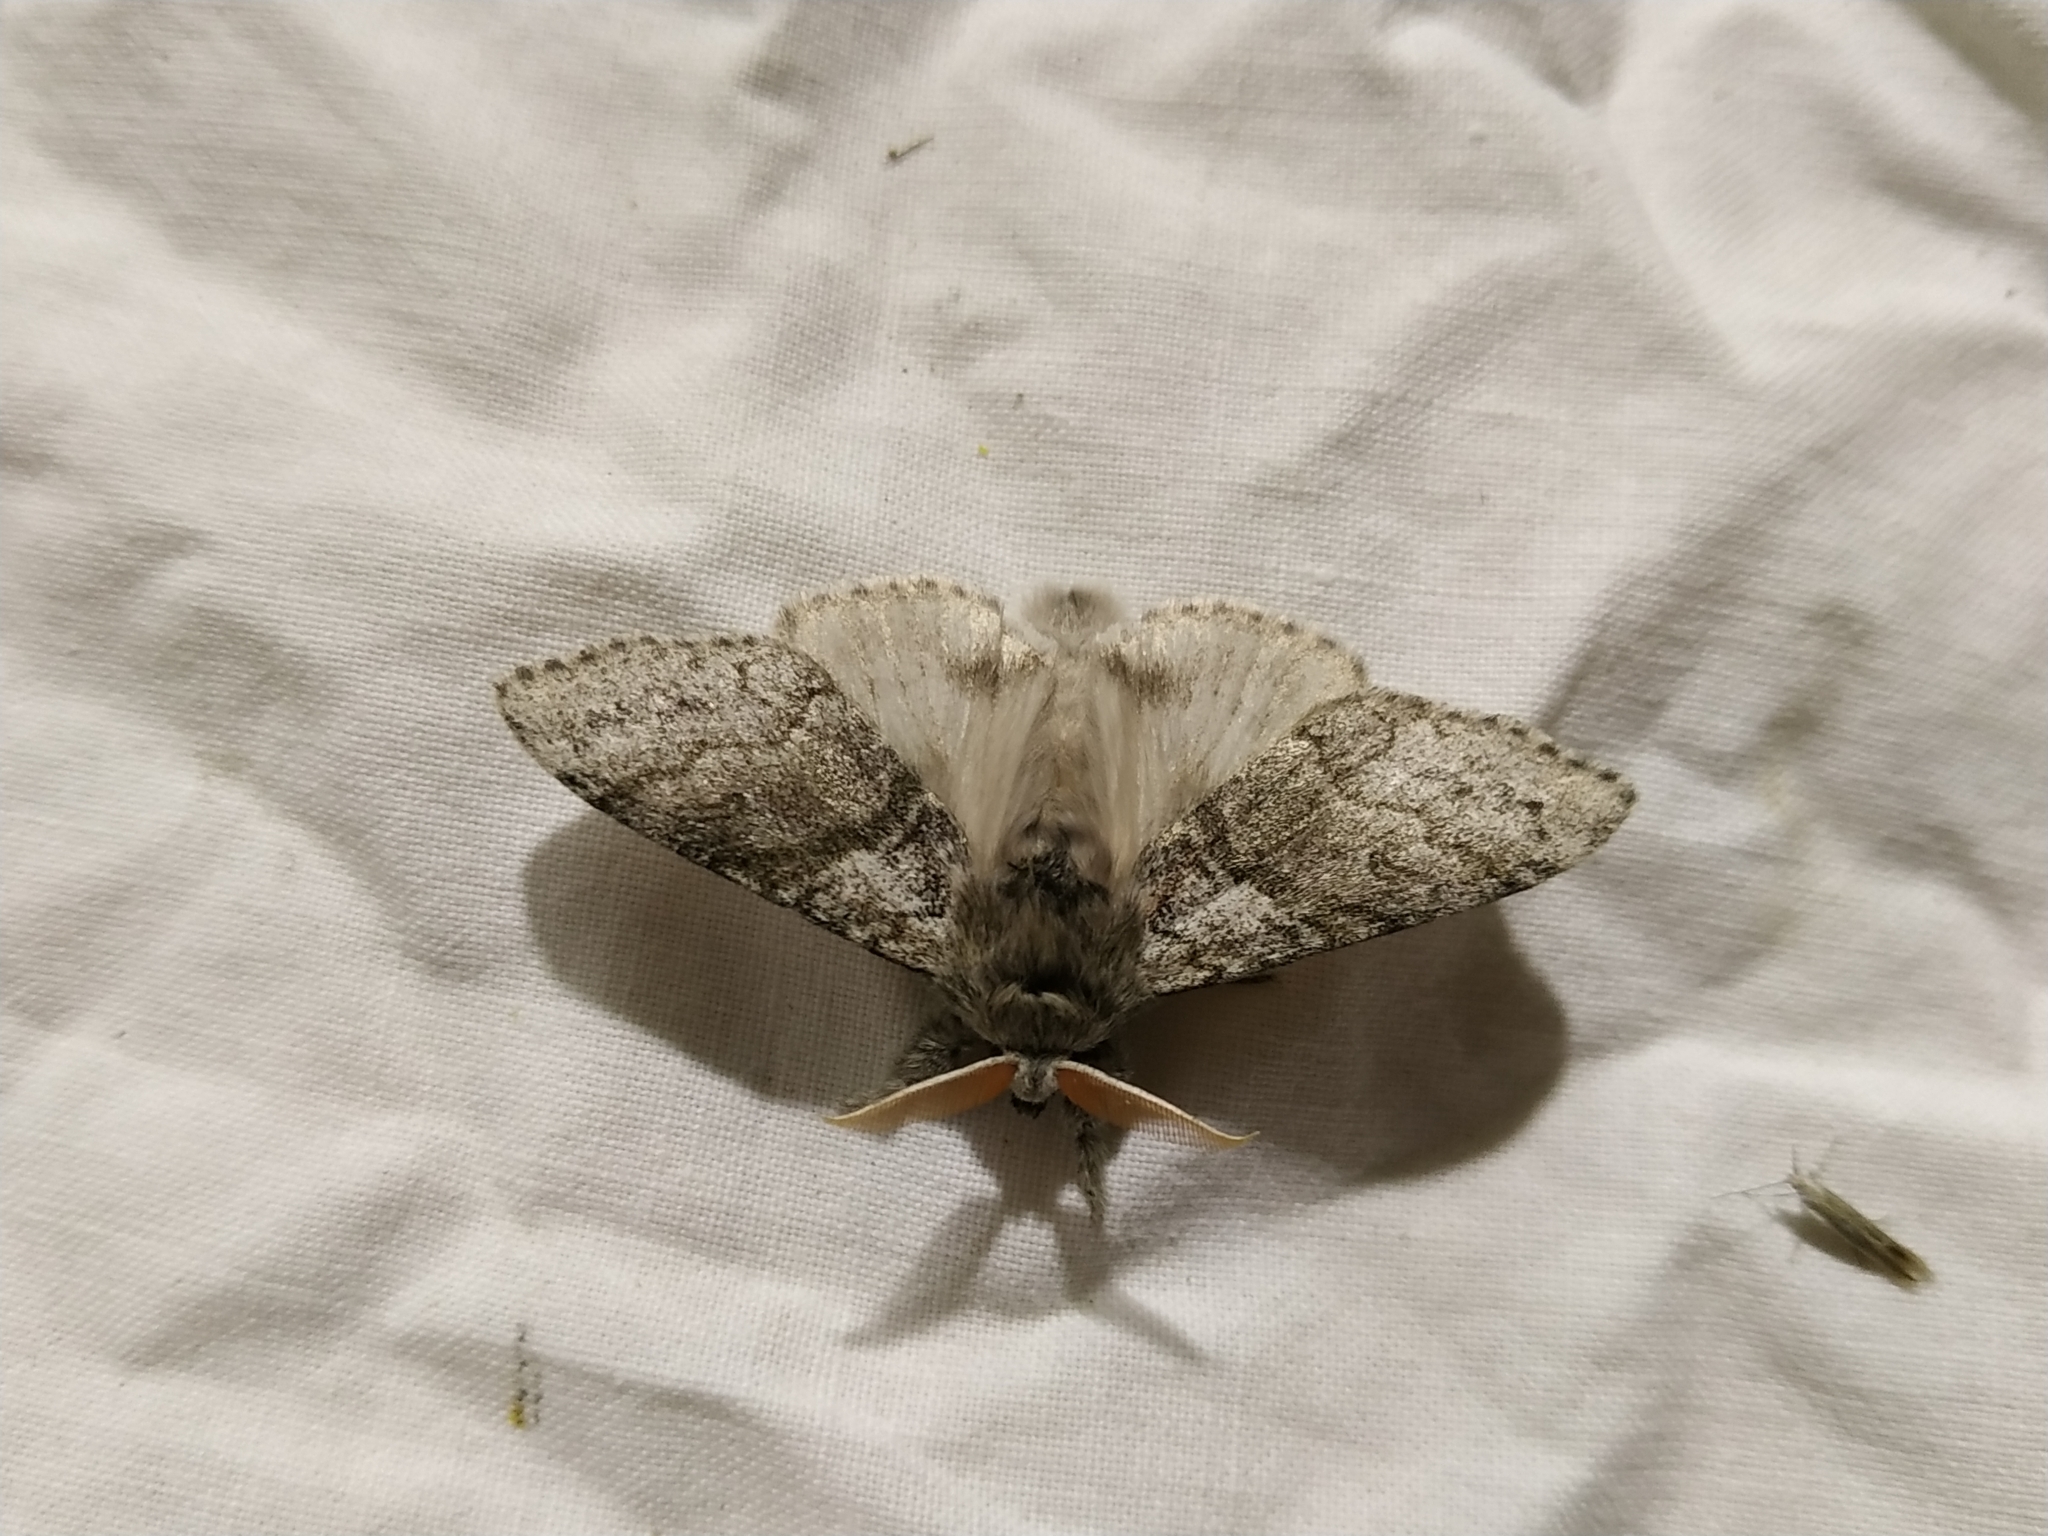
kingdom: Animalia
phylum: Arthropoda
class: Insecta
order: Lepidoptera
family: Erebidae
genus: Calliteara
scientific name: Calliteara pudibunda
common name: Pale tussock
